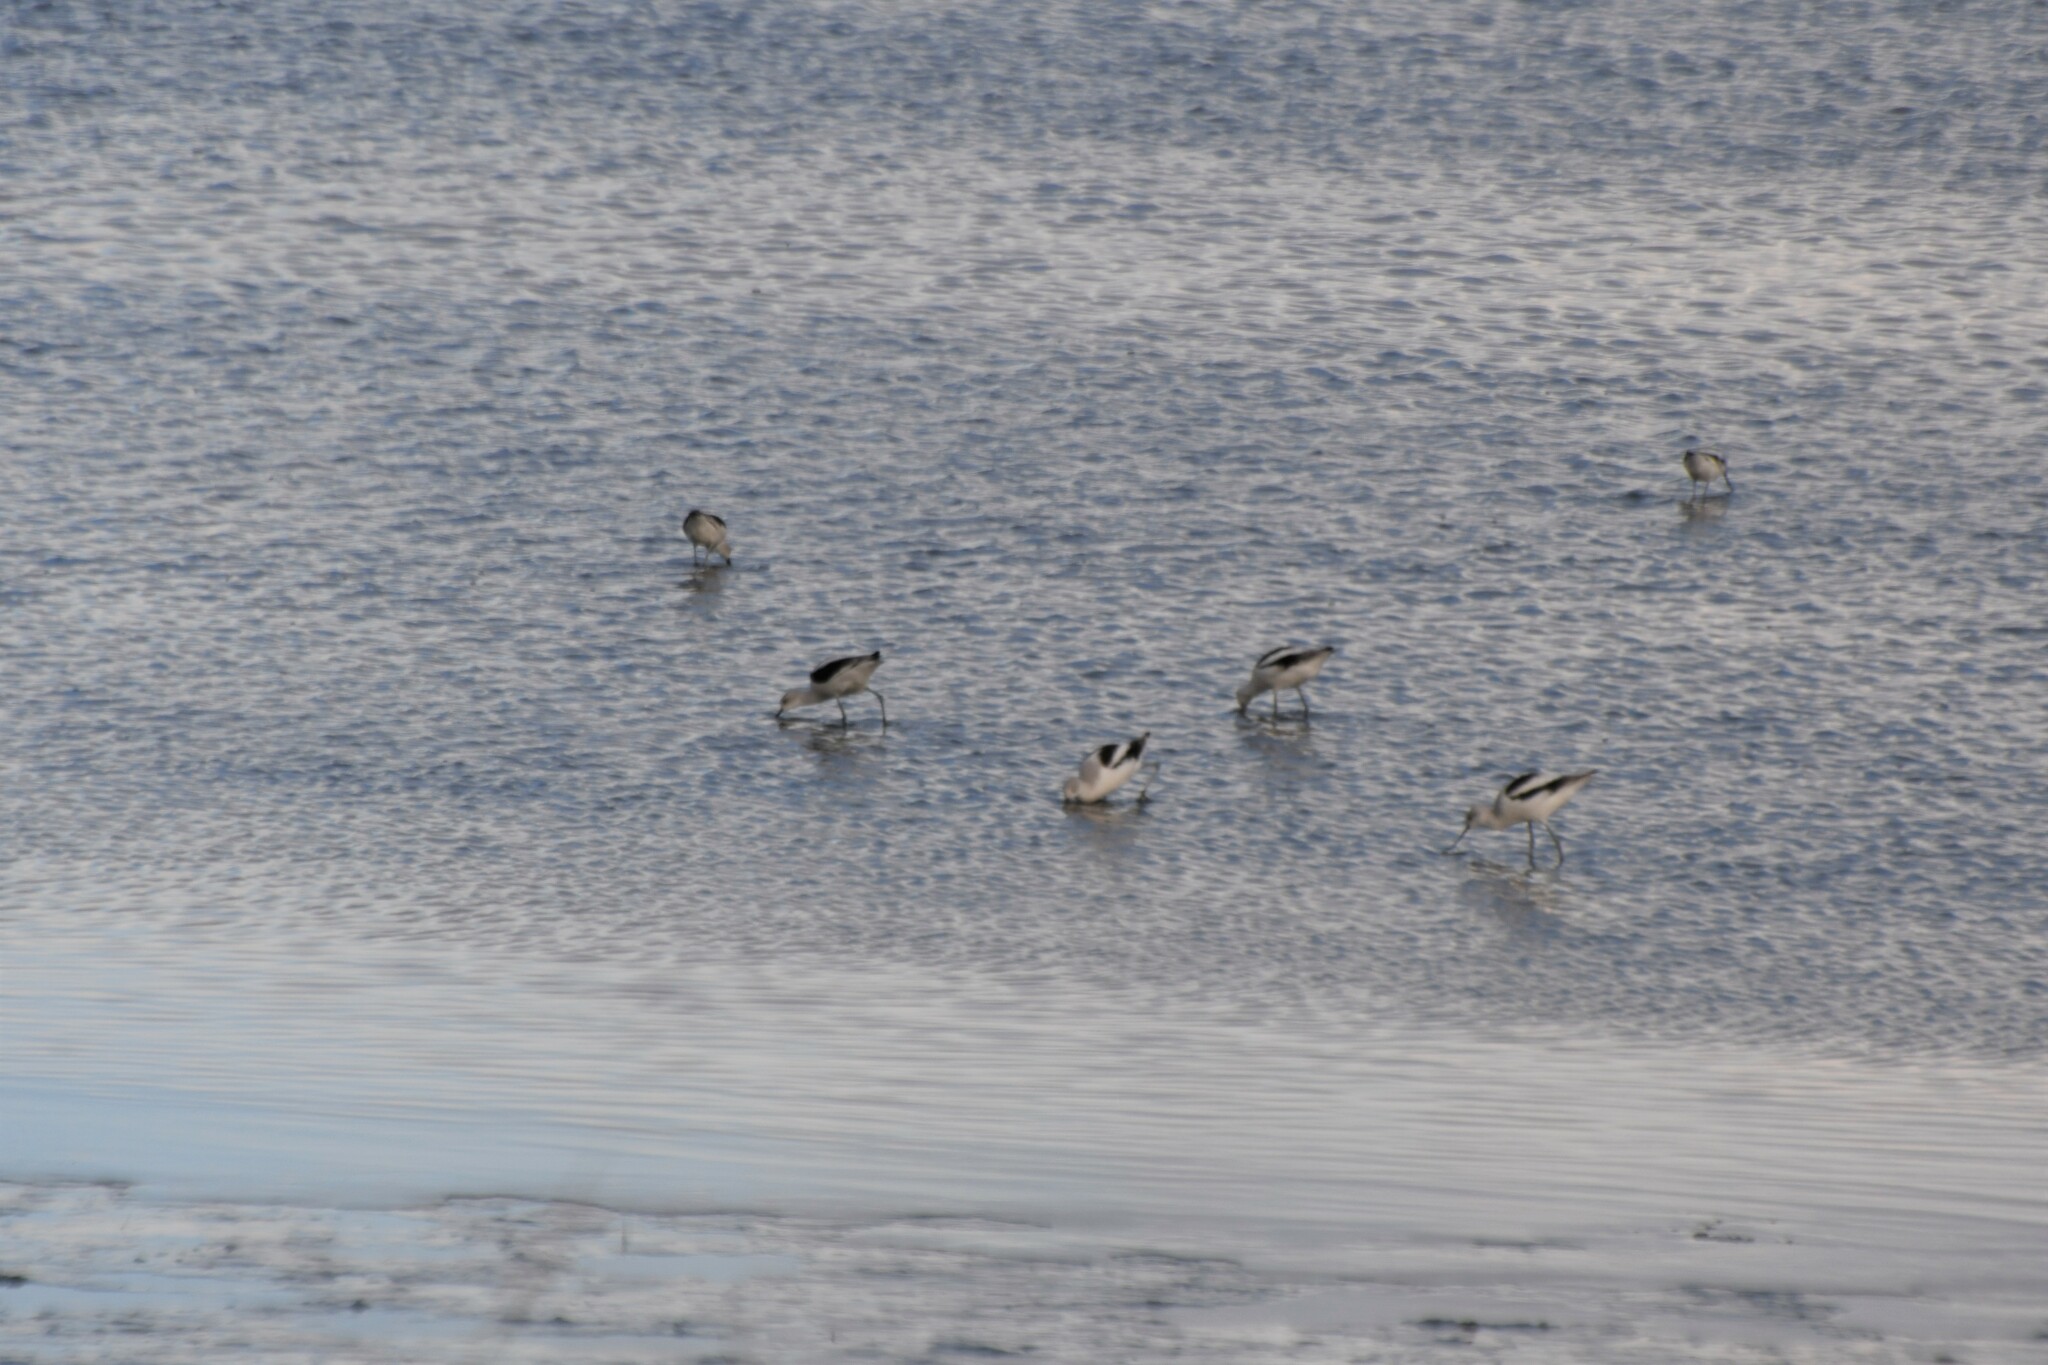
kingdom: Animalia
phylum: Chordata
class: Aves
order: Charadriiformes
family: Recurvirostridae
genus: Recurvirostra
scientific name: Recurvirostra americana
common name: American avocet
